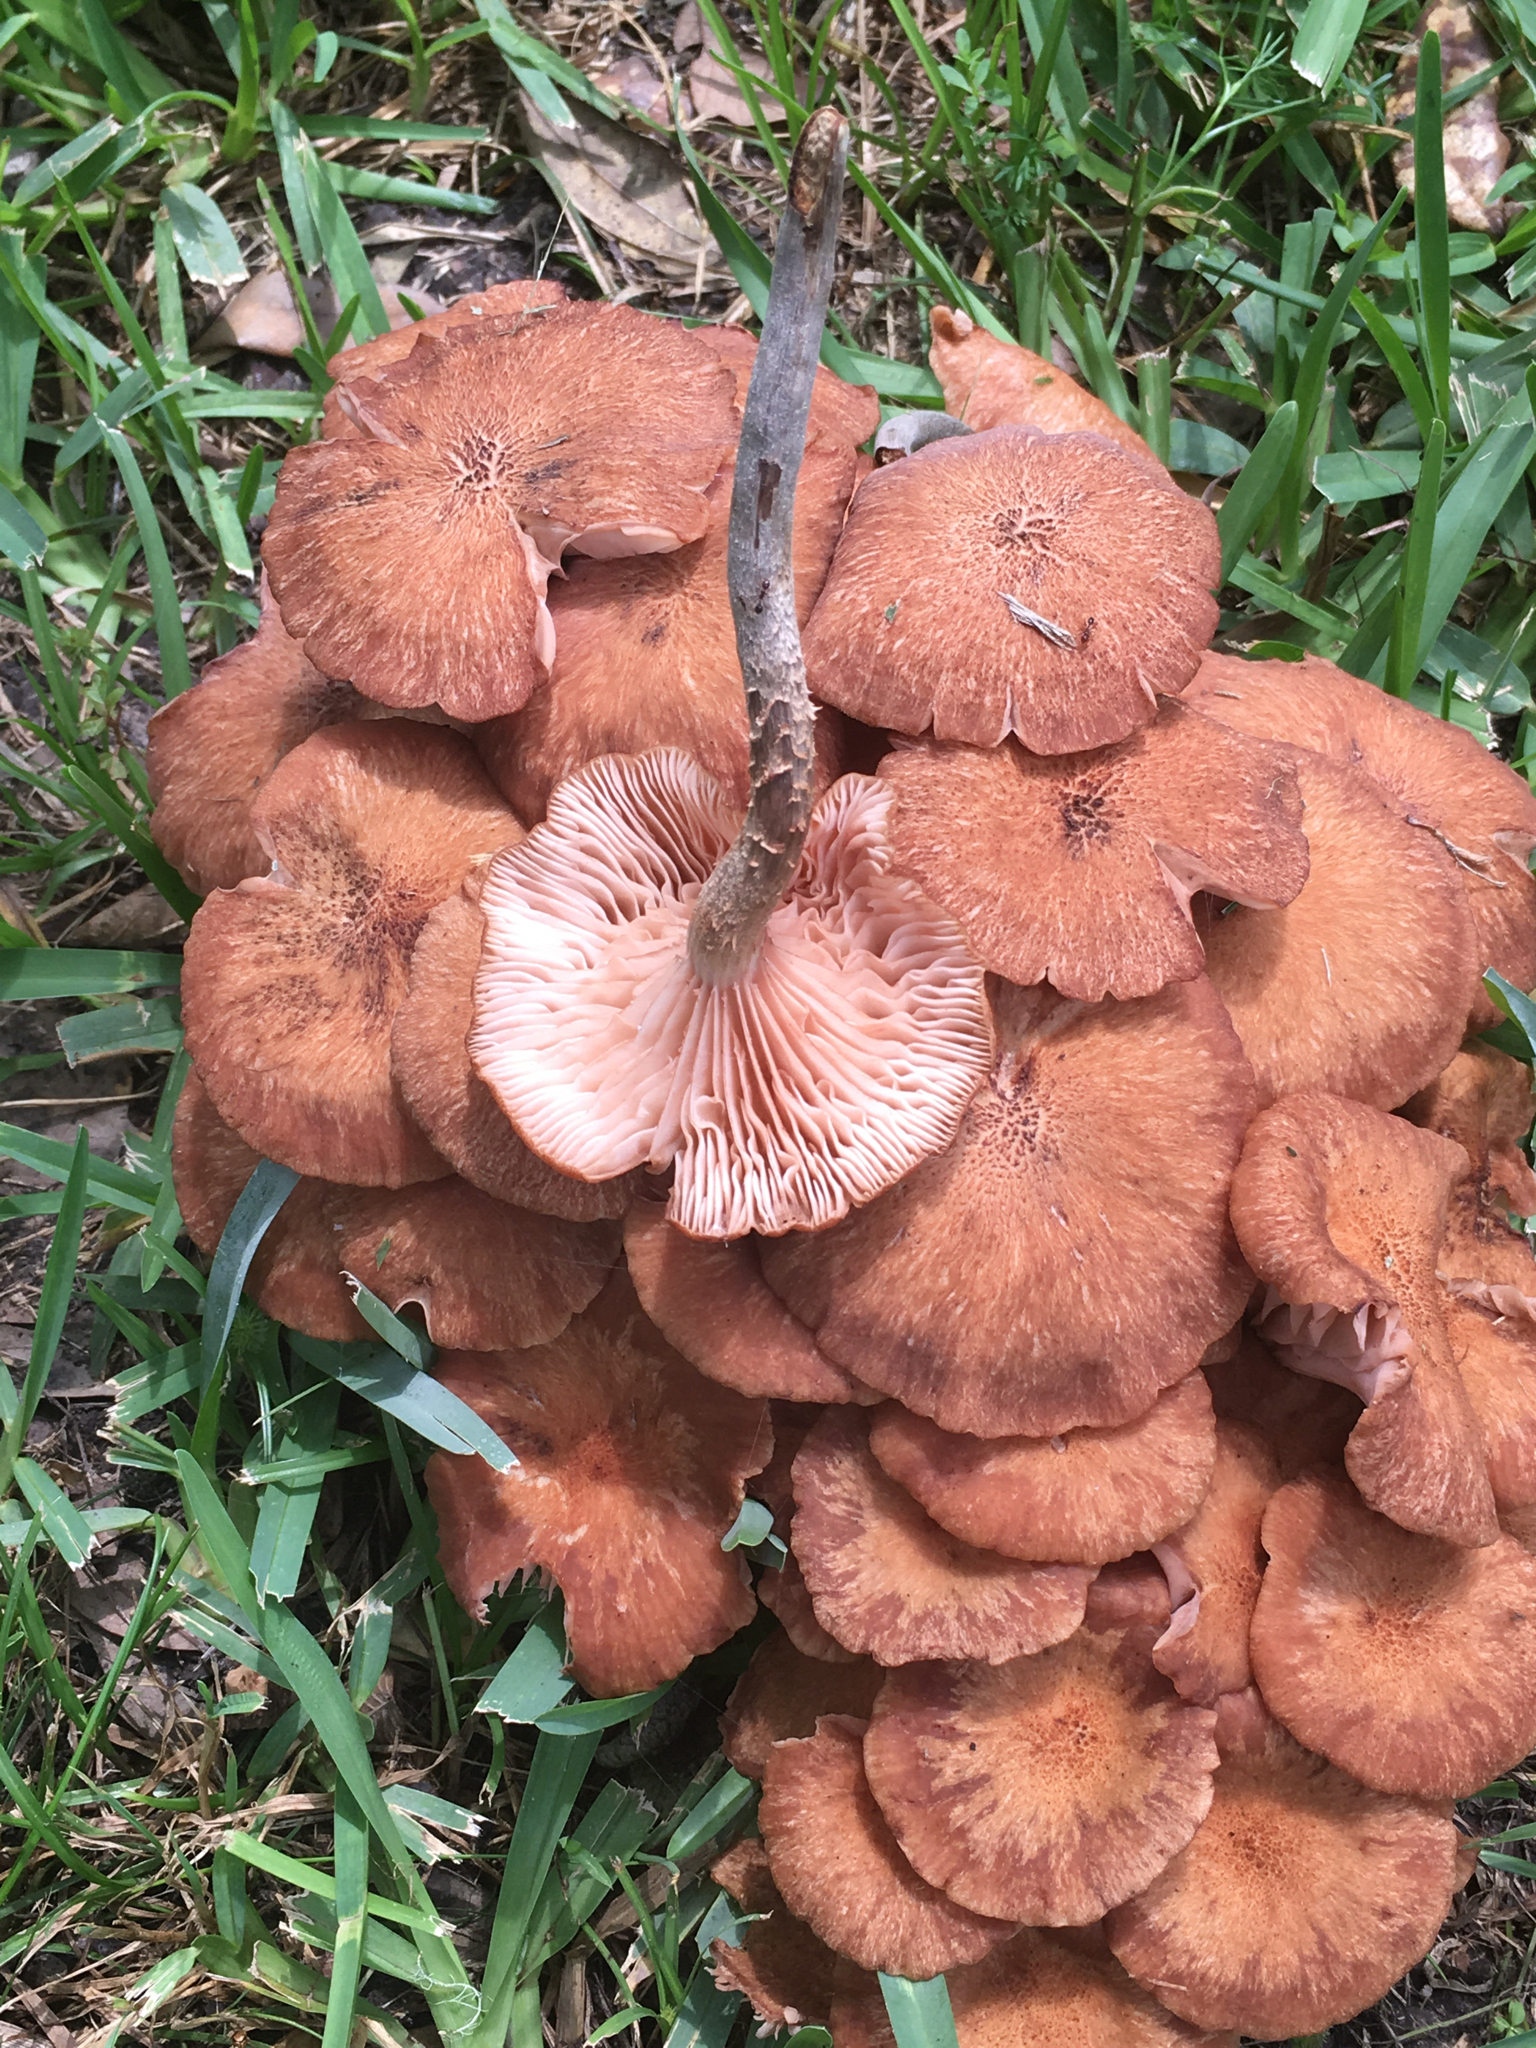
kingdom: Fungi
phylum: Basidiomycota
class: Agaricomycetes
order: Agaricales
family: Physalacriaceae
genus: Desarmillaria
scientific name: Desarmillaria caespitosa
